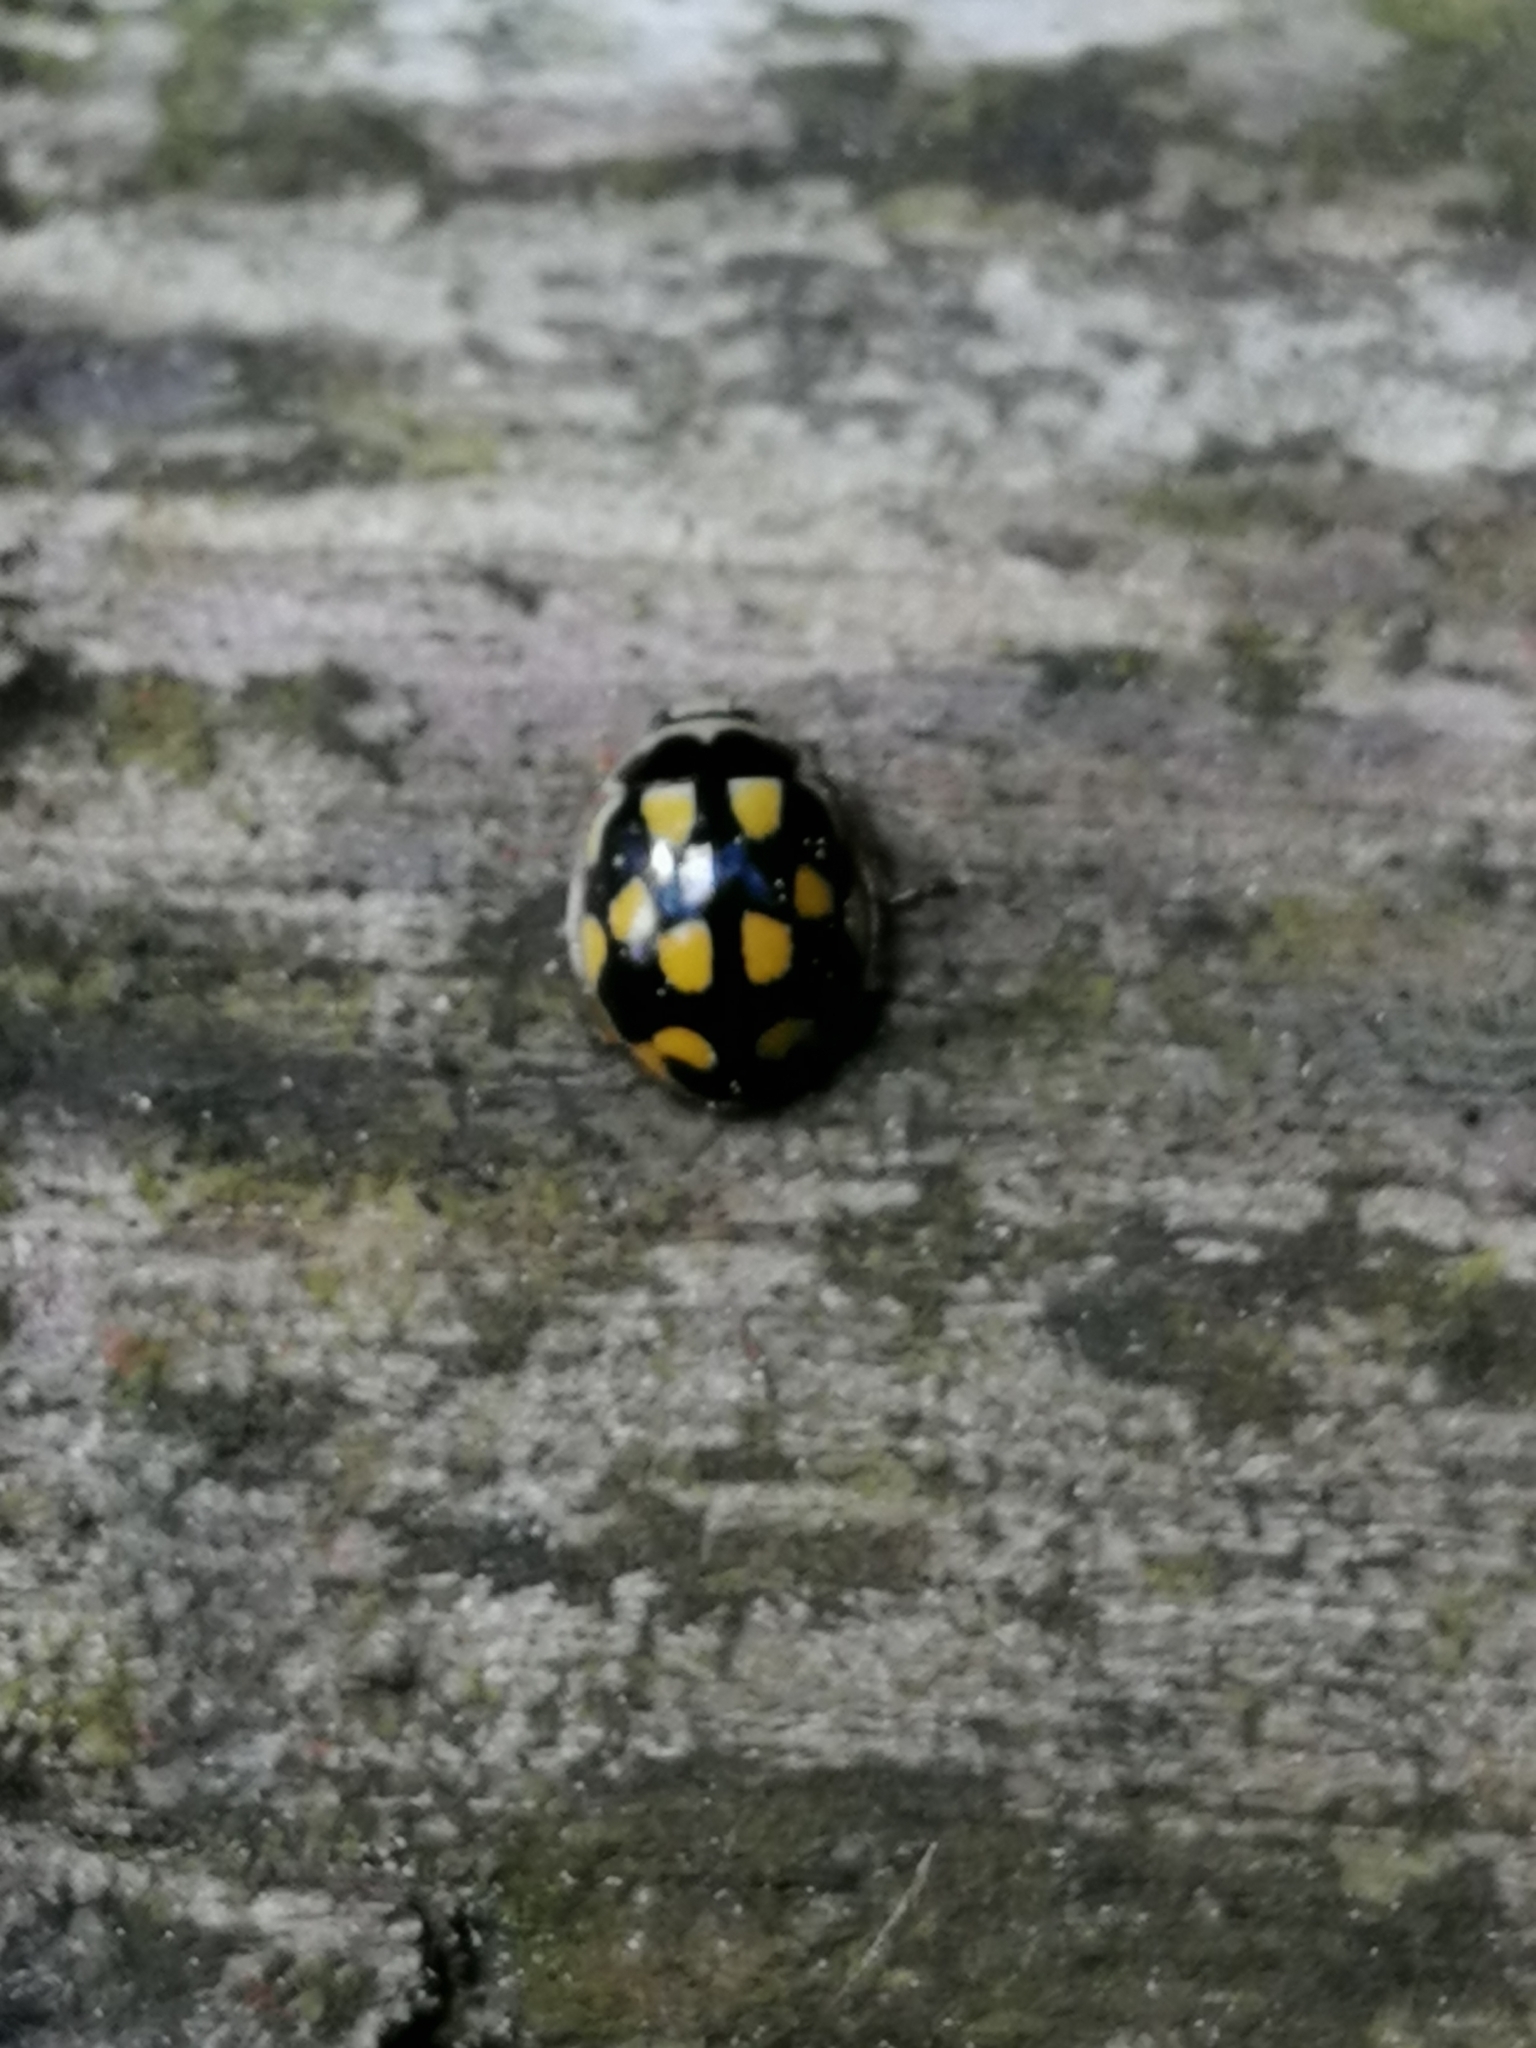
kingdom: Animalia
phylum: Arthropoda
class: Insecta
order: Coleoptera
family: Coccinellidae
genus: Propylaea
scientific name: Propylaea quatuordecimpunctata
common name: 14-spotted ladybird beetle
